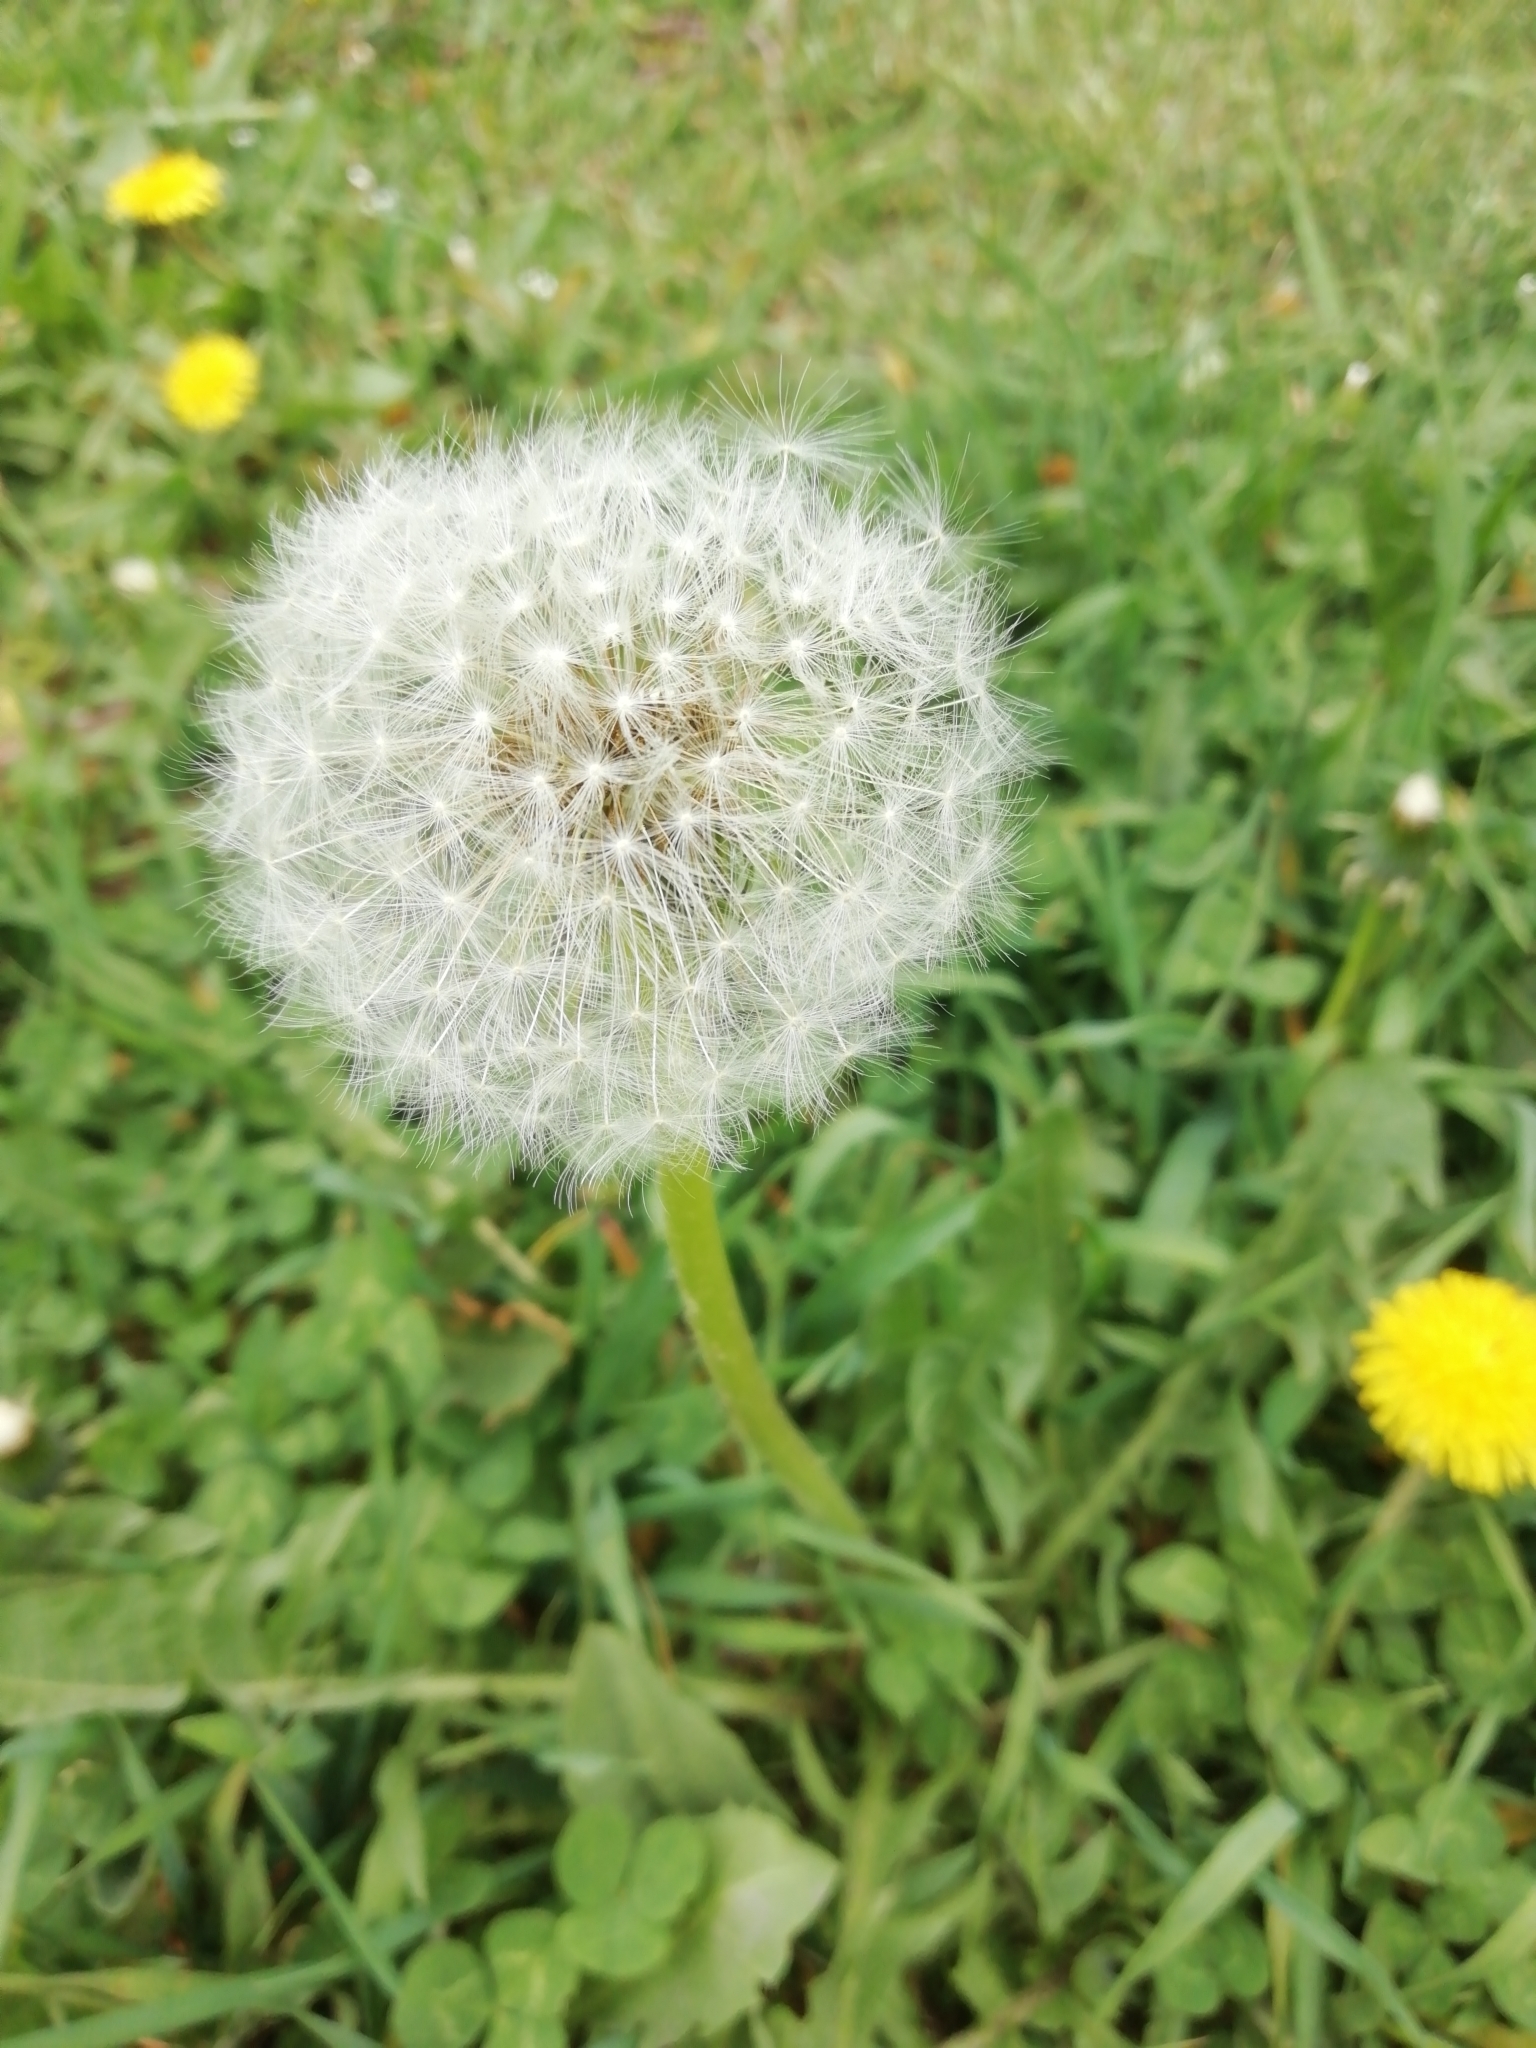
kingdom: Plantae
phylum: Tracheophyta
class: Magnoliopsida
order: Asterales
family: Asteraceae
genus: Taraxacum
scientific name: Taraxacum officinale
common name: Common dandelion
